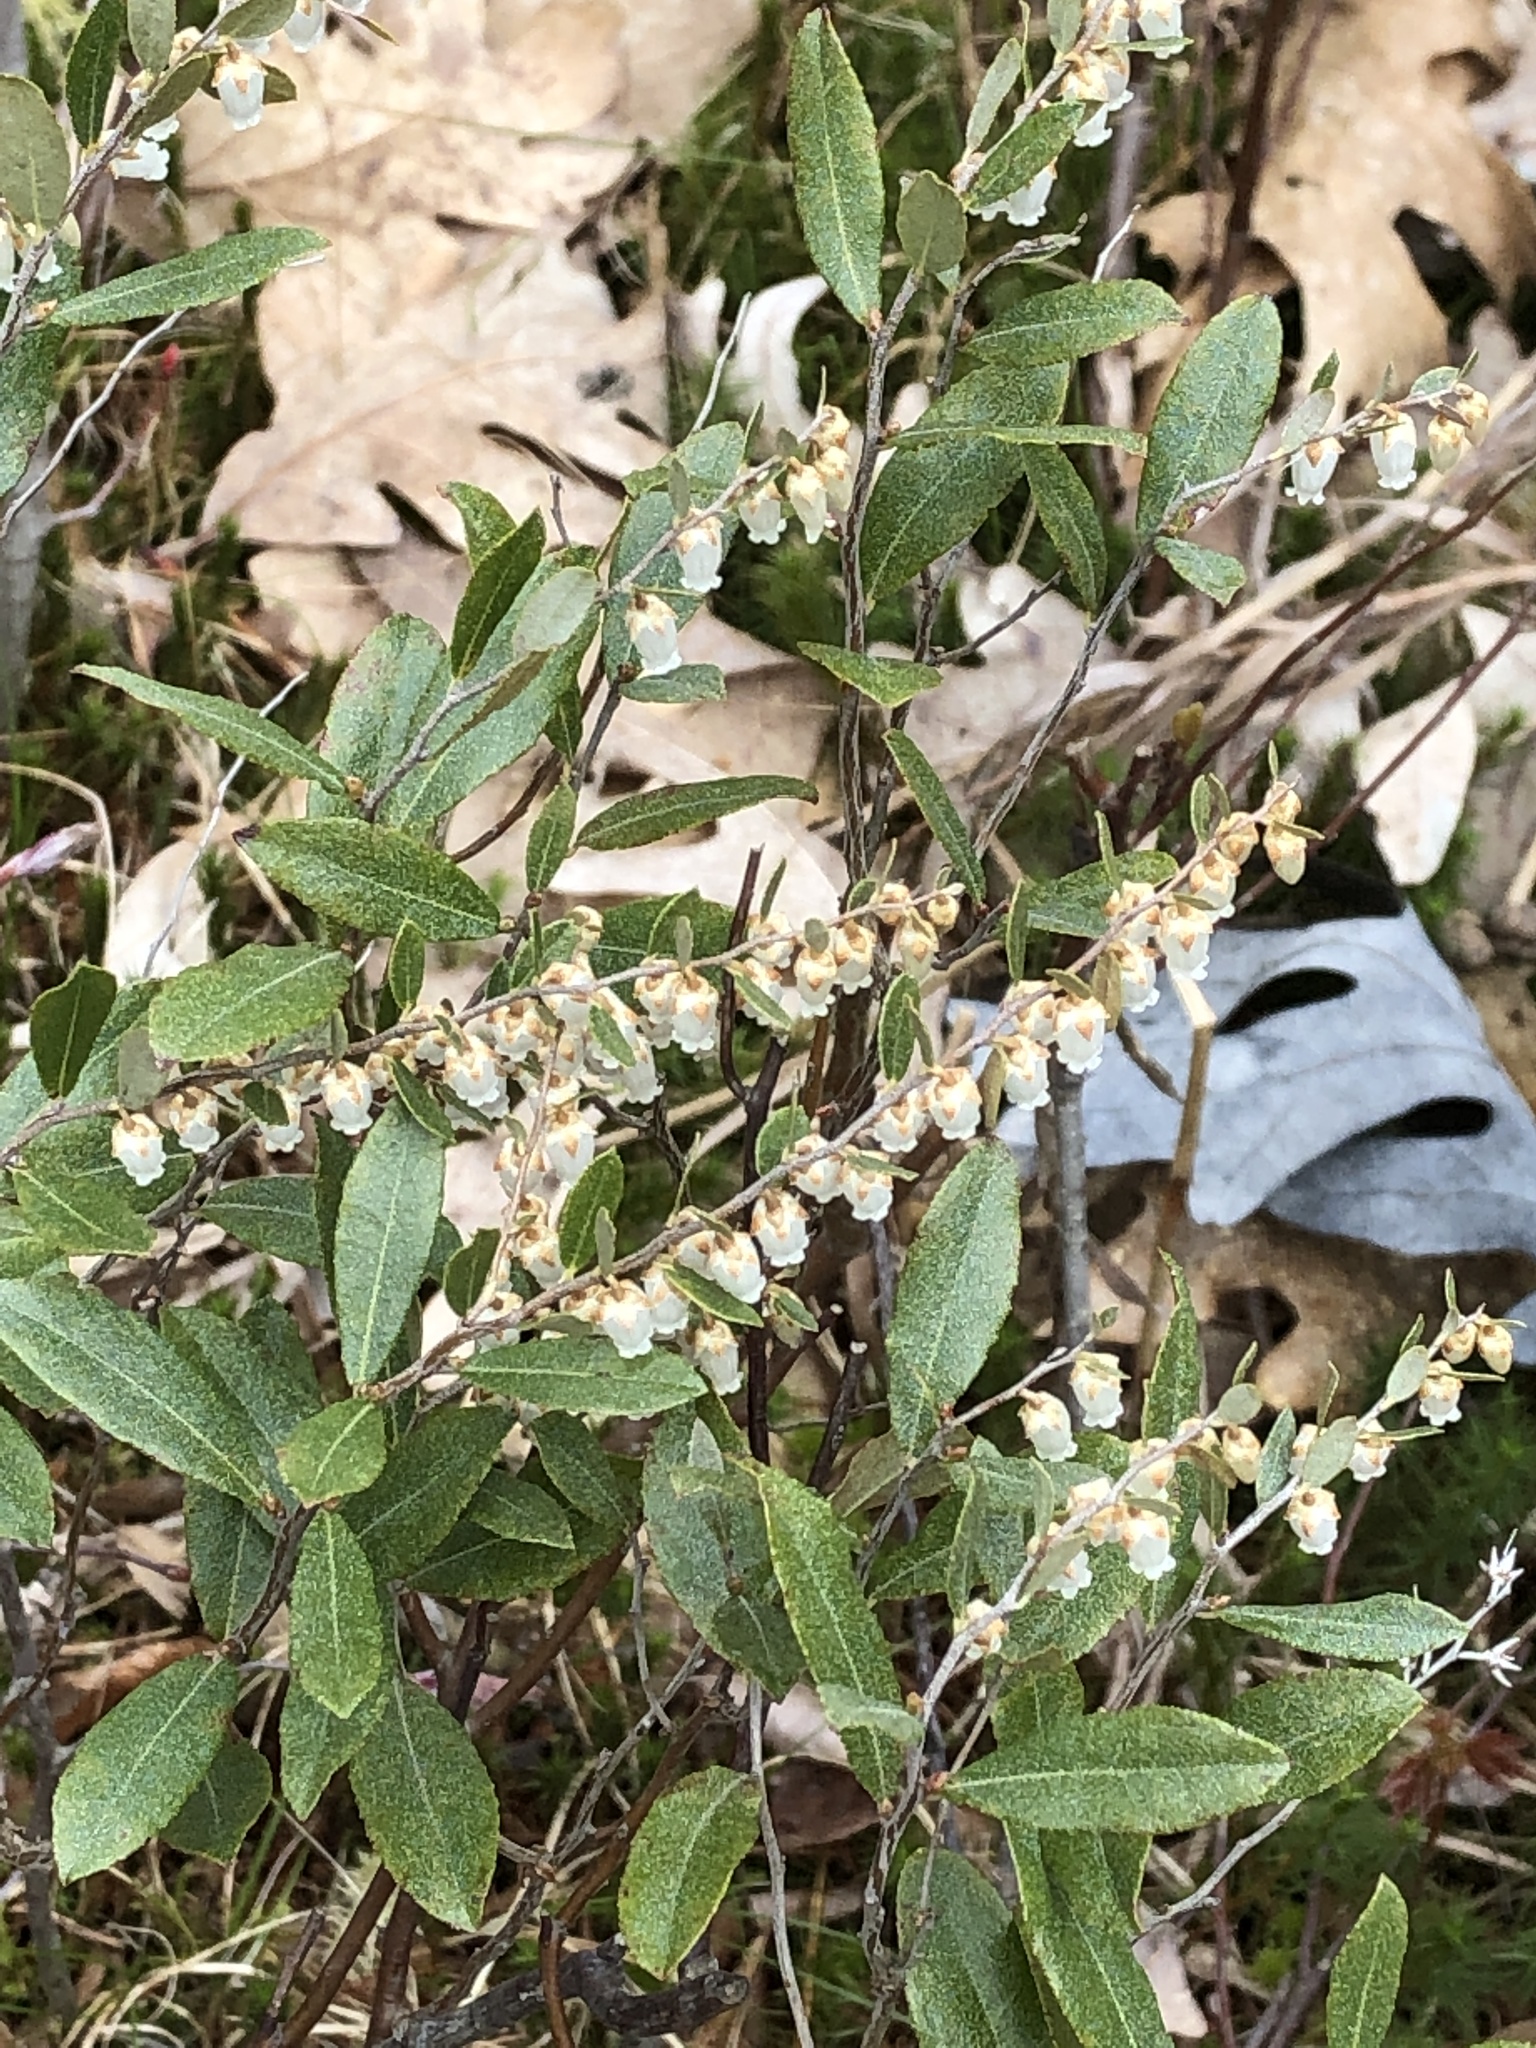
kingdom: Plantae
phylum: Tracheophyta
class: Magnoliopsida
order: Ericales
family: Ericaceae
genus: Chamaedaphne
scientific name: Chamaedaphne calyculata
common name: Leatherleaf
